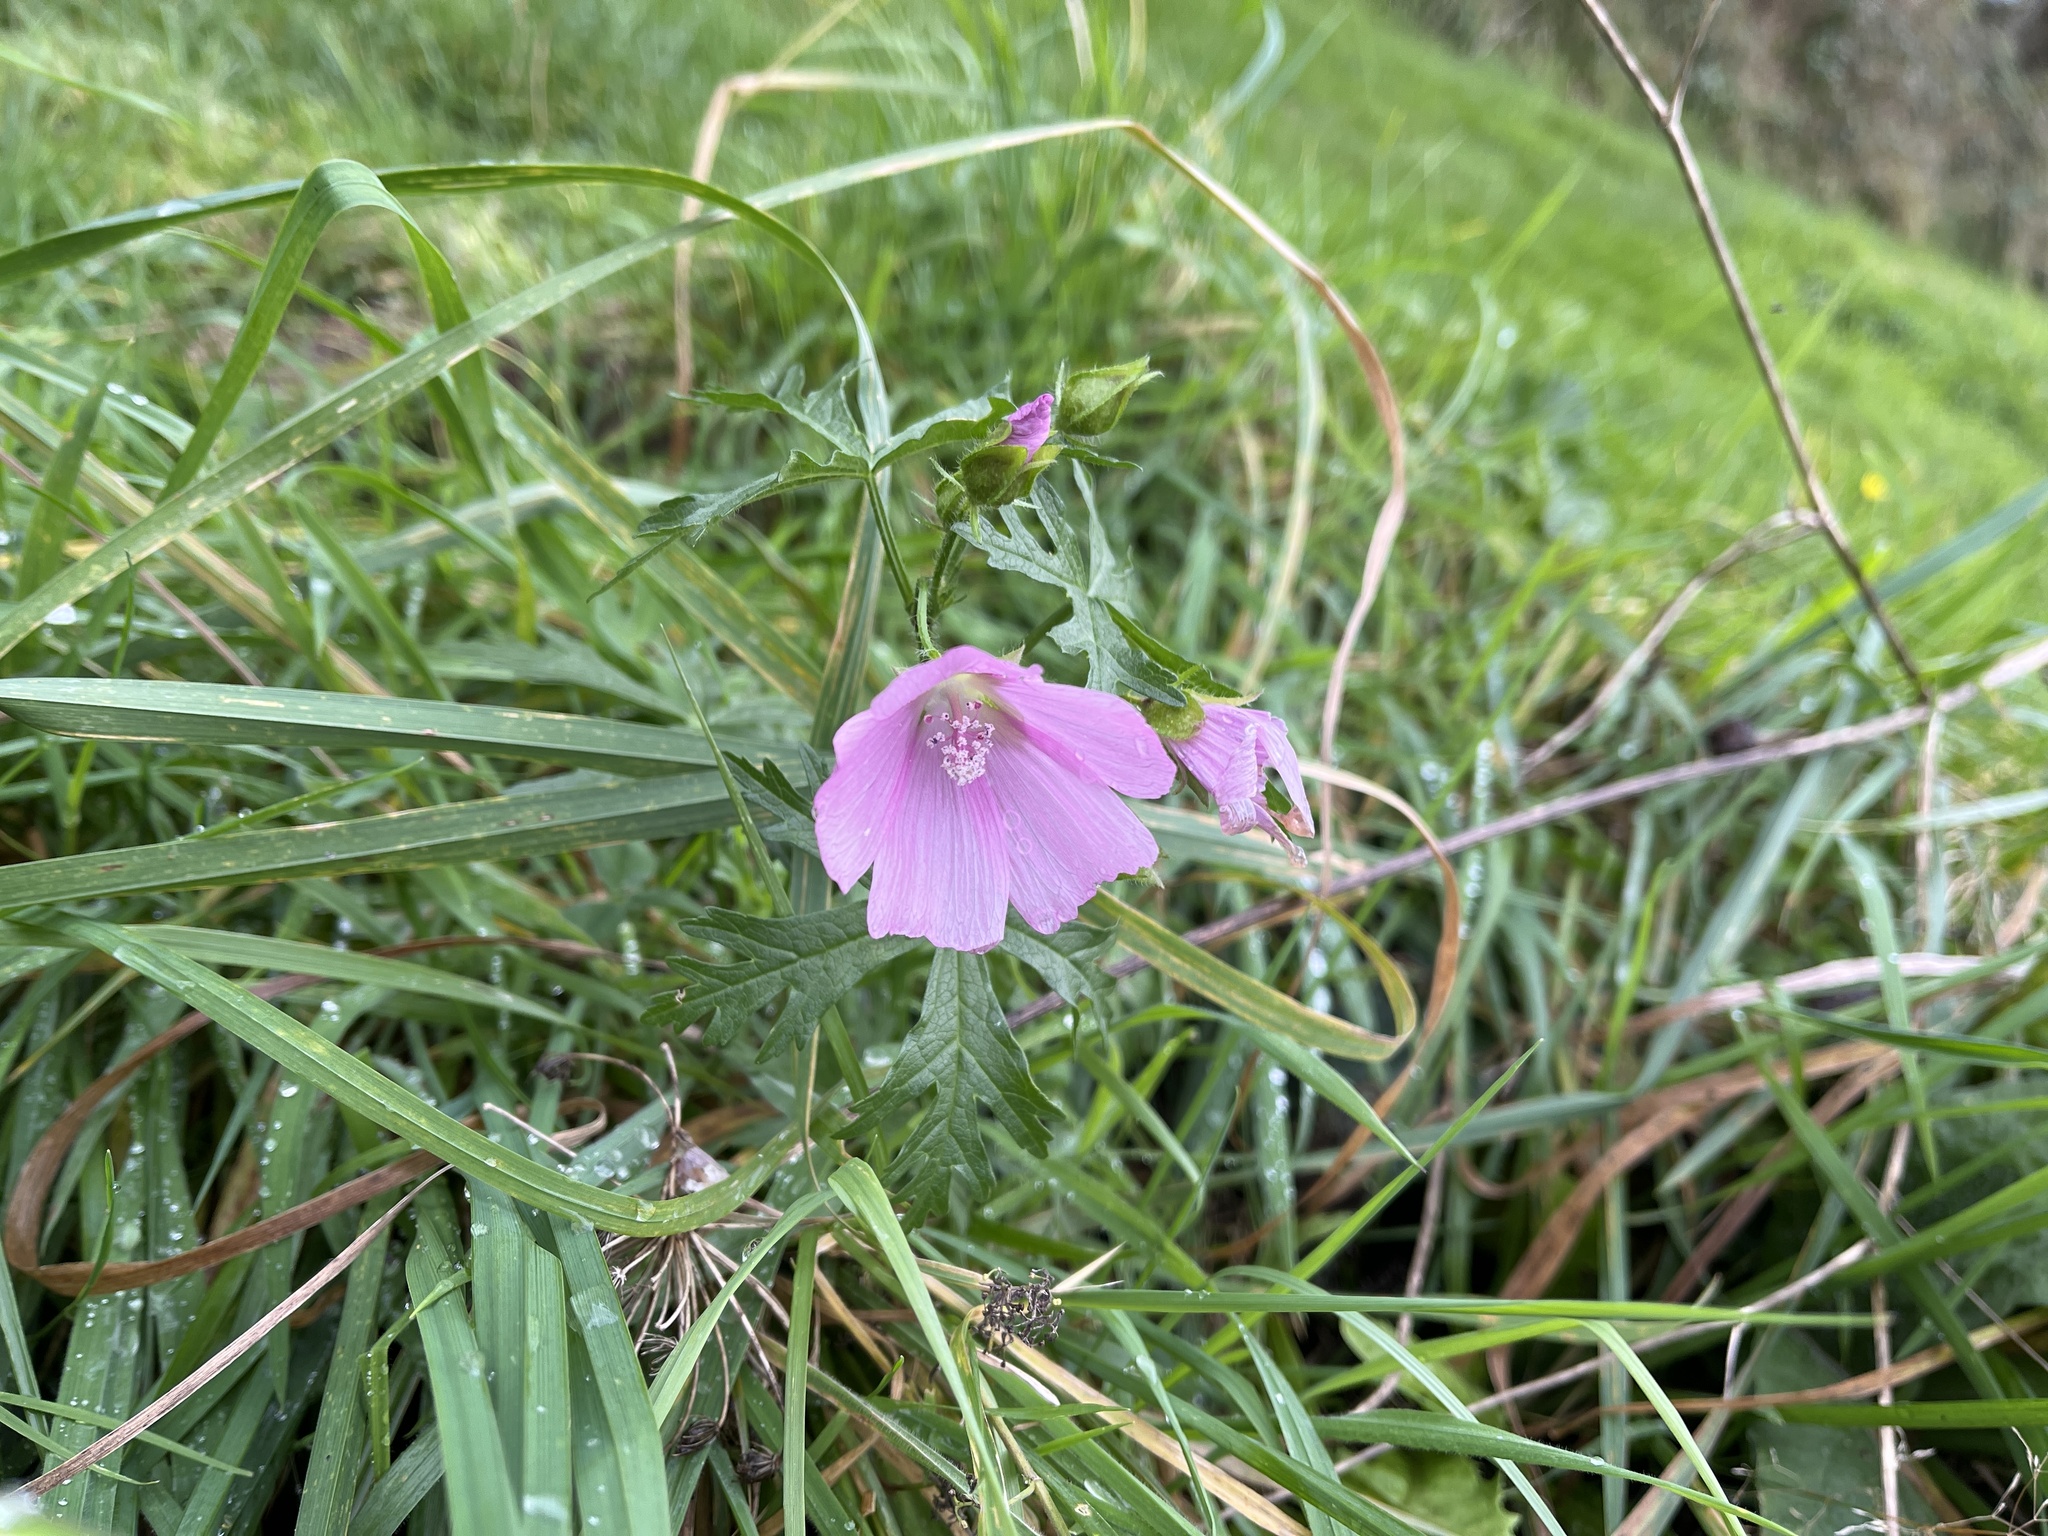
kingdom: Plantae
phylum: Tracheophyta
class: Magnoliopsida
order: Malvales
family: Malvaceae
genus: Malva
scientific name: Malva moschata
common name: Musk mallow
